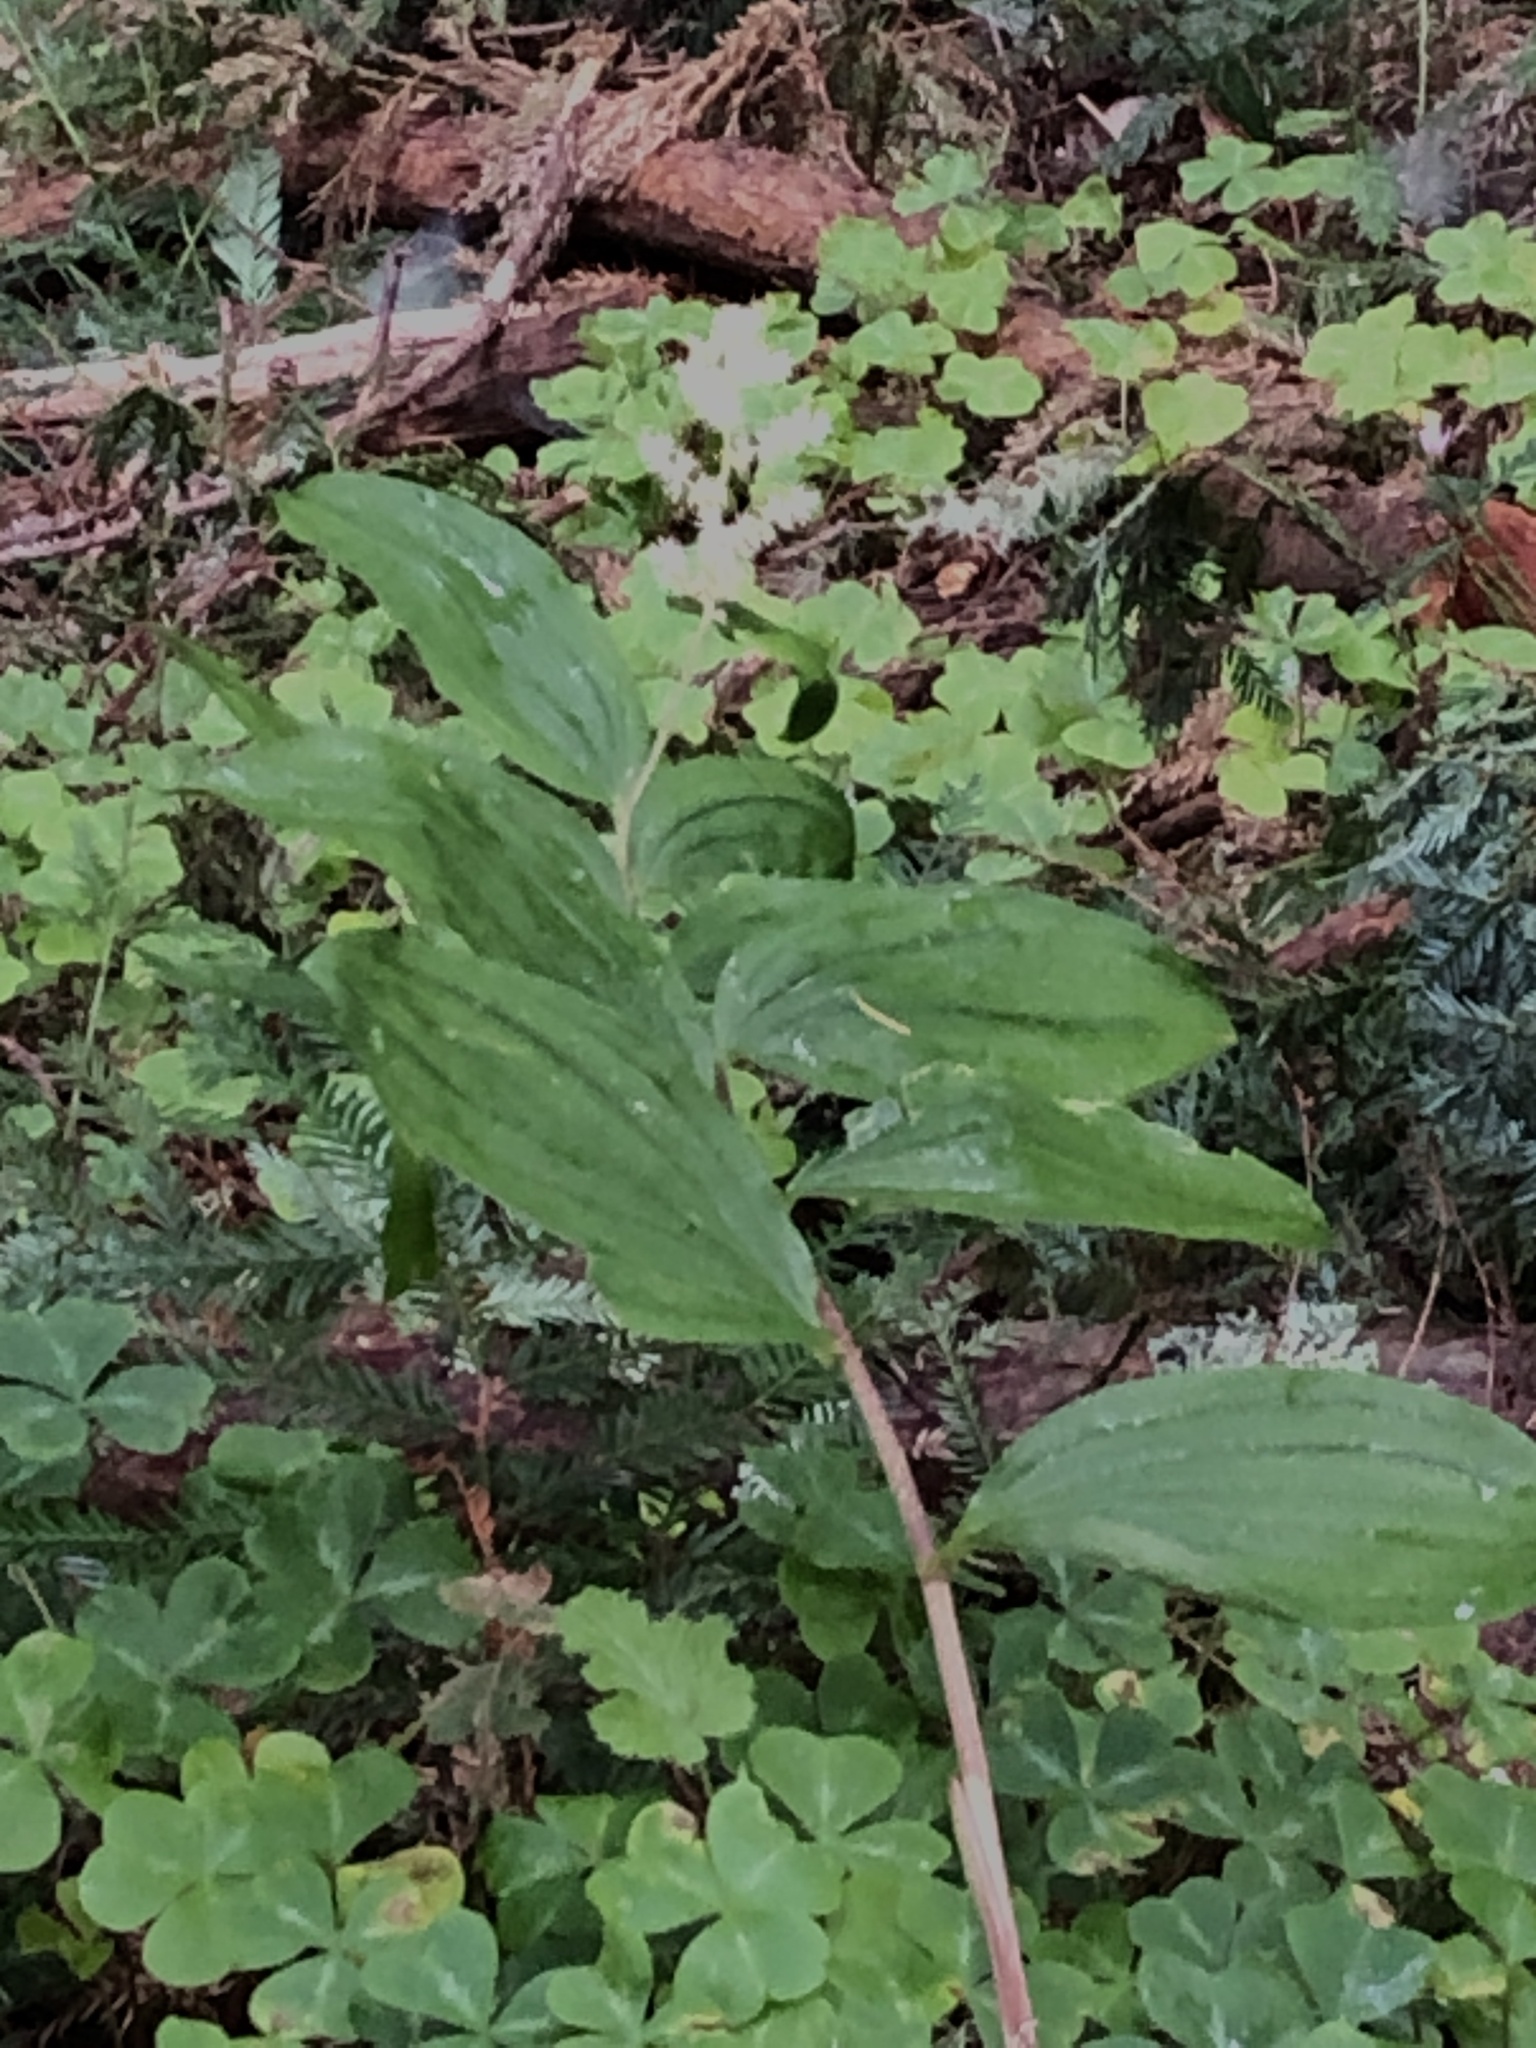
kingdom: Plantae
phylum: Tracheophyta
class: Liliopsida
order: Asparagales
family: Asparagaceae
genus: Maianthemum
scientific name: Maianthemum racemosum
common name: False spikenard
